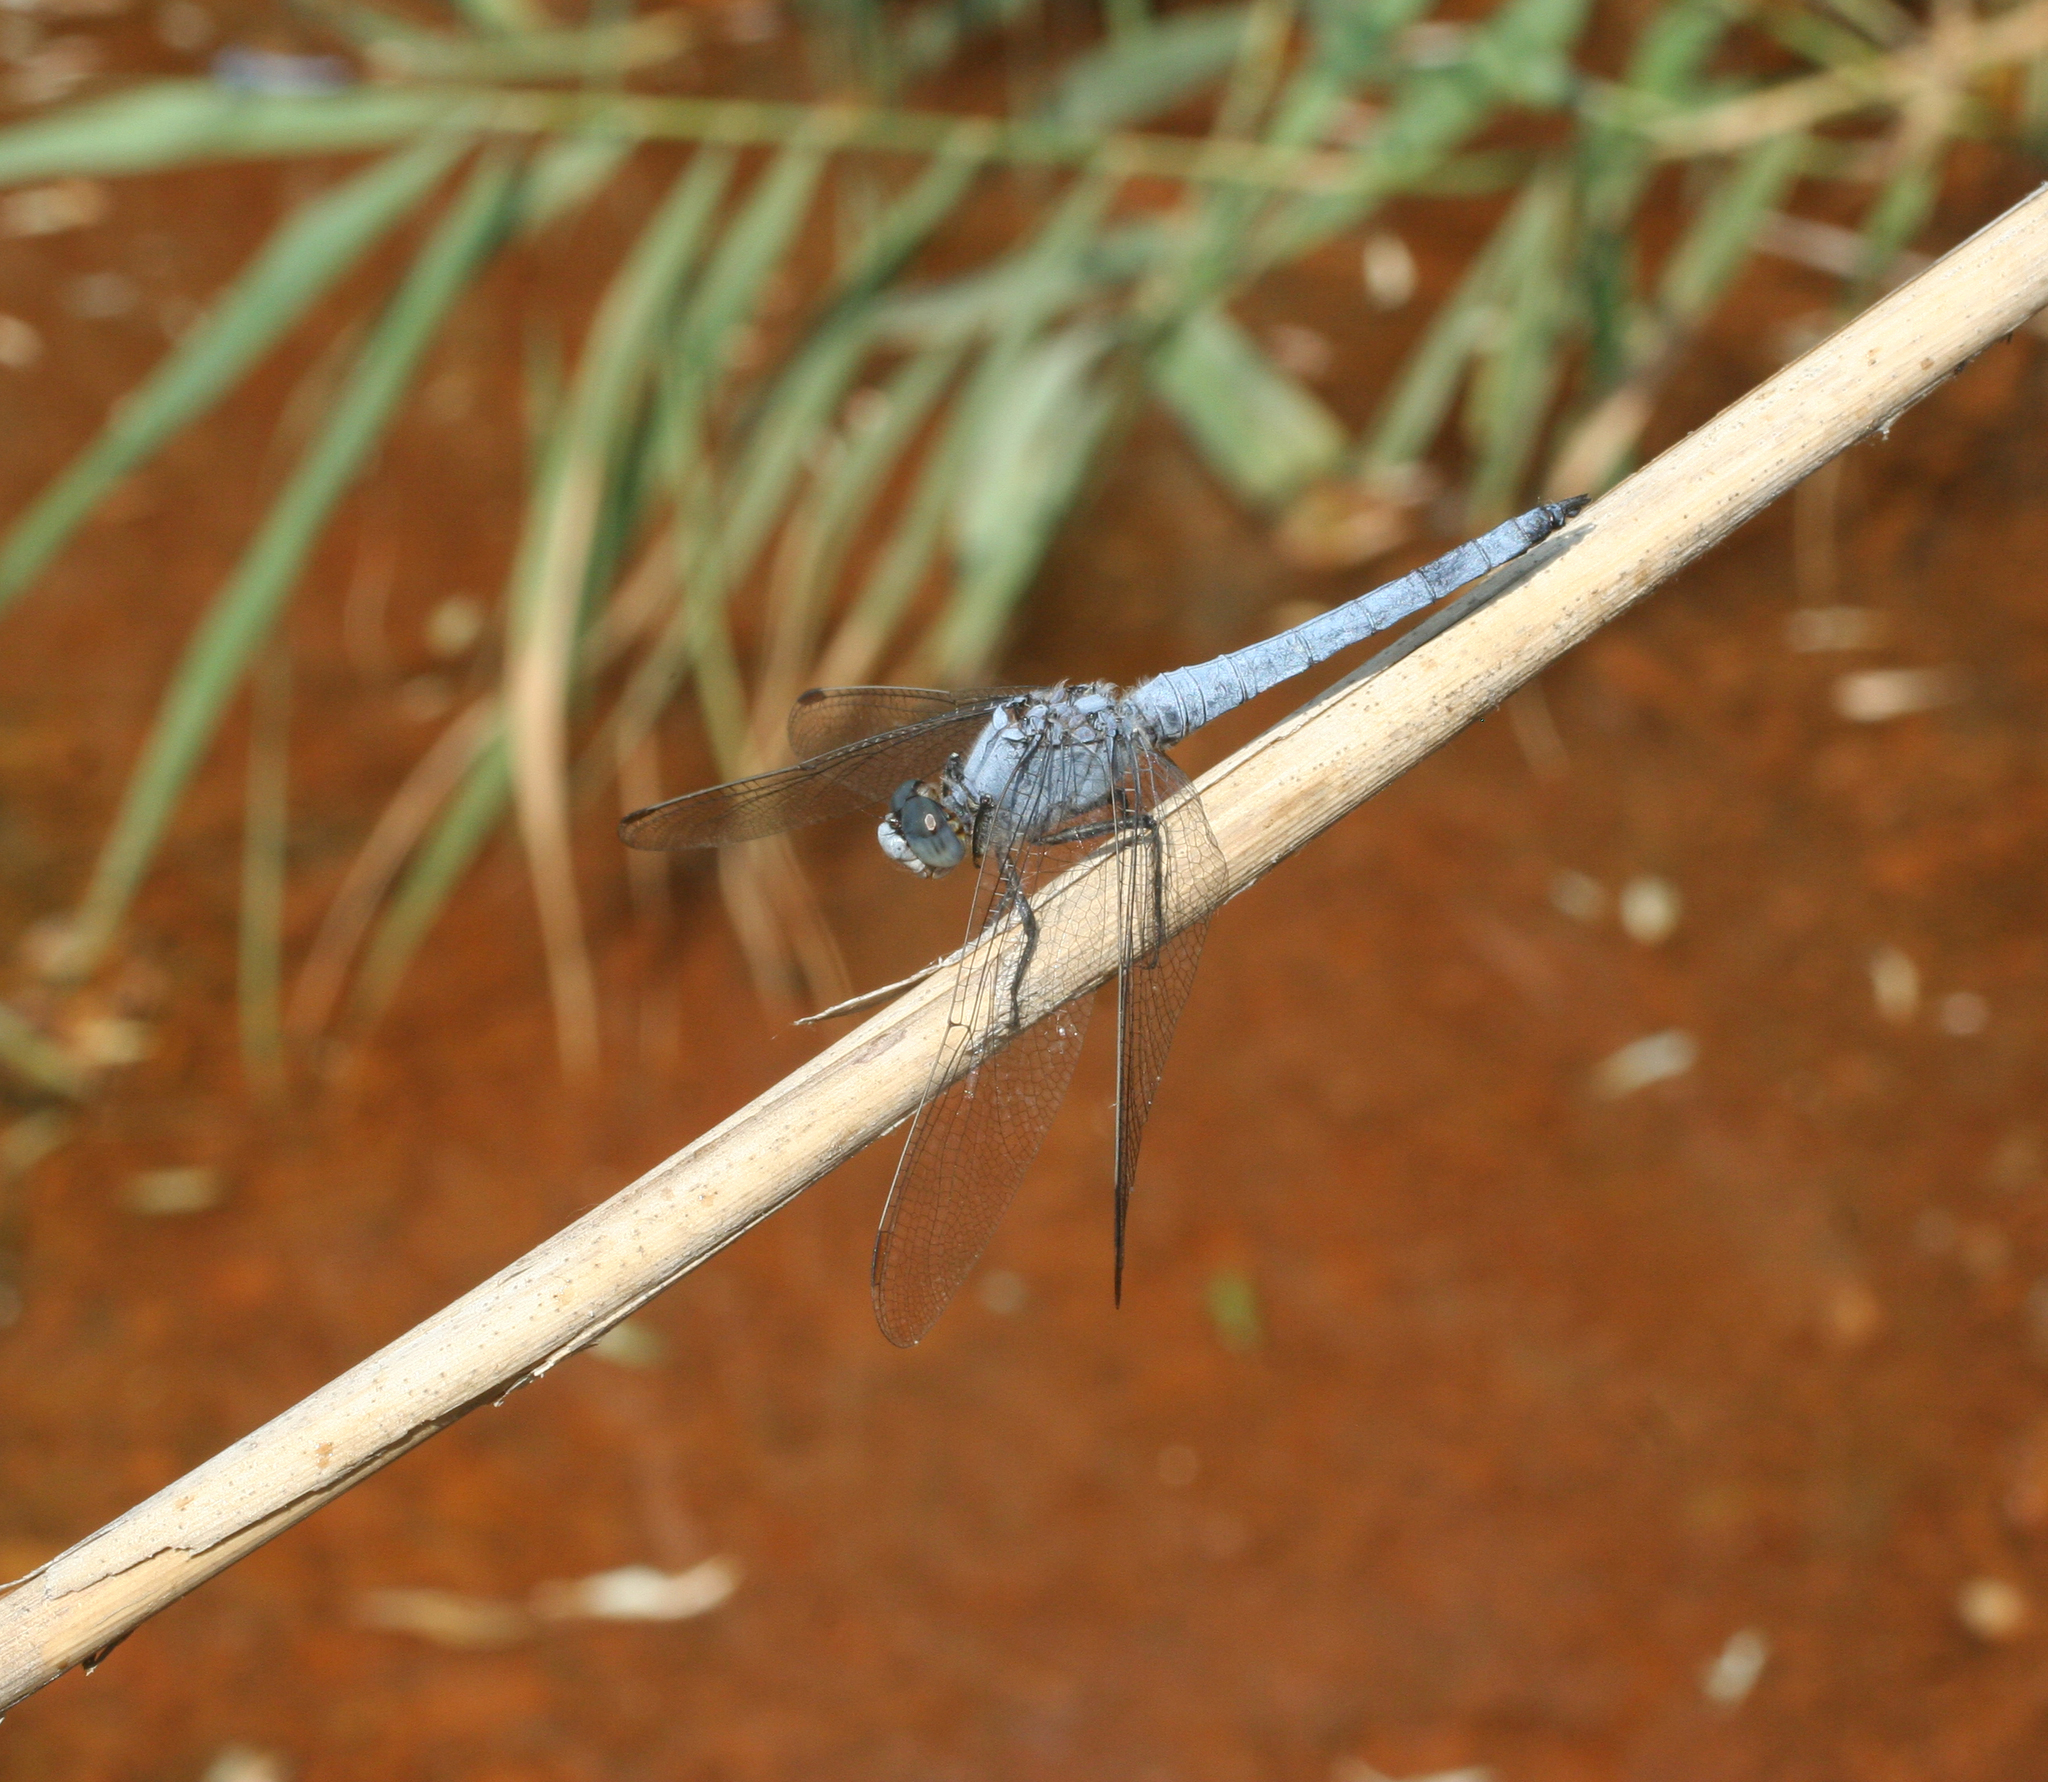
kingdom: Animalia
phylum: Arthropoda
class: Insecta
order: Odonata
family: Libellulidae
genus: Orthetrum
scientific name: Orthetrum brunneum
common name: Southern skimmer
